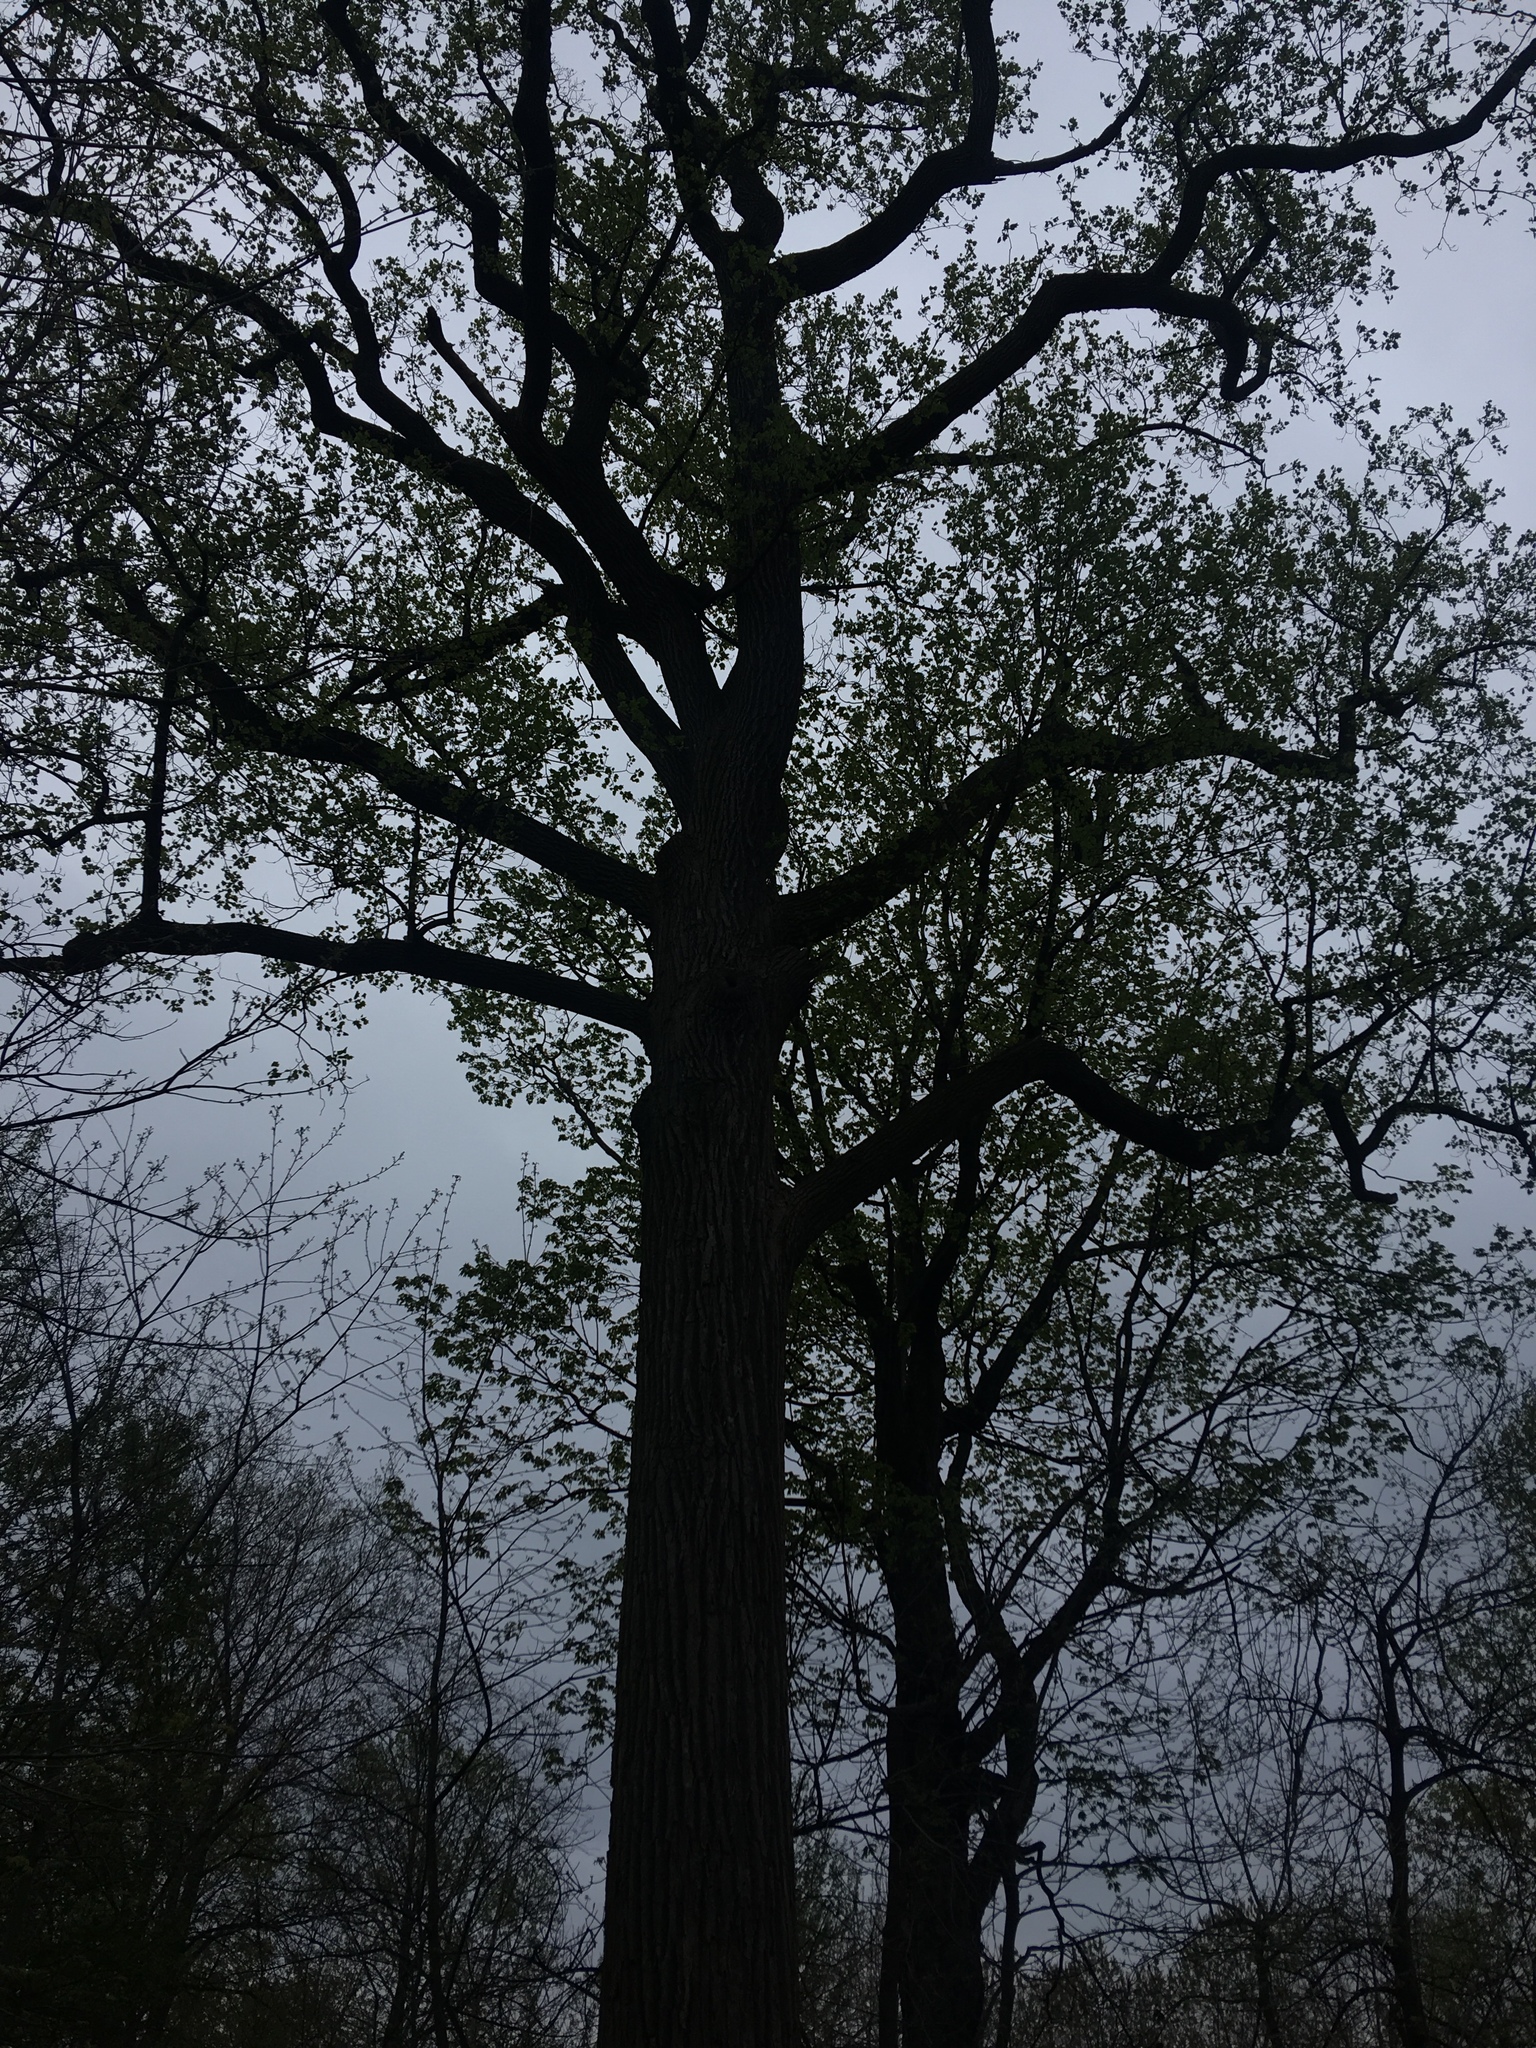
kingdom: Plantae
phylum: Tracheophyta
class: Magnoliopsida
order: Magnoliales
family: Magnoliaceae
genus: Liriodendron
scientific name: Liriodendron tulipifera
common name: Tulip tree
